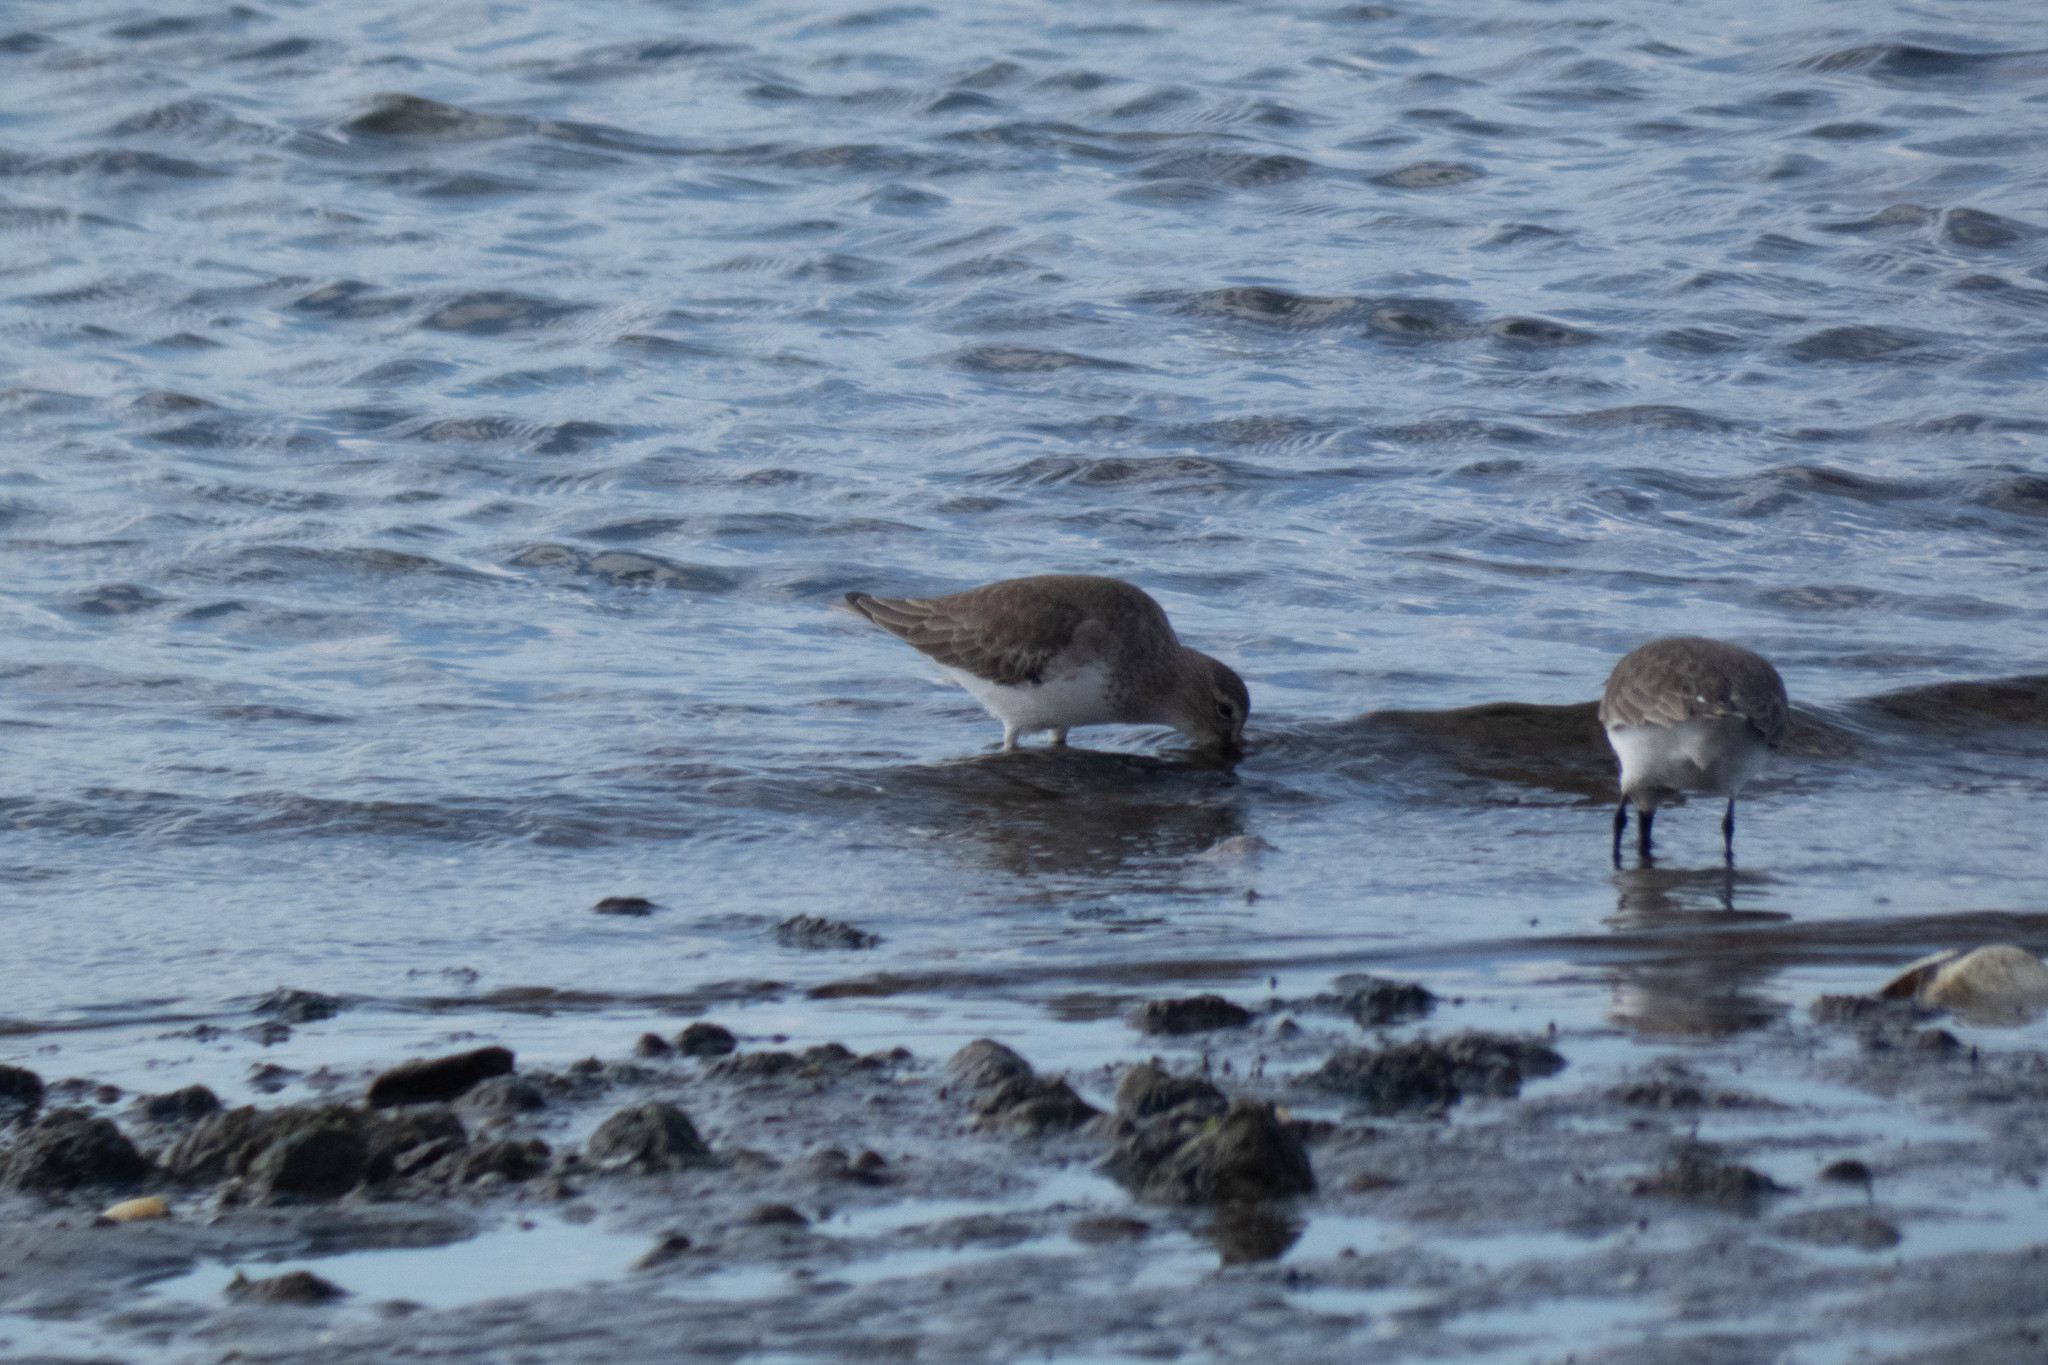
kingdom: Animalia
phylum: Chordata
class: Aves
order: Charadriiformes
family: Scolopacidae
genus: Calidris
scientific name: Calidris alpina
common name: Dunlin
